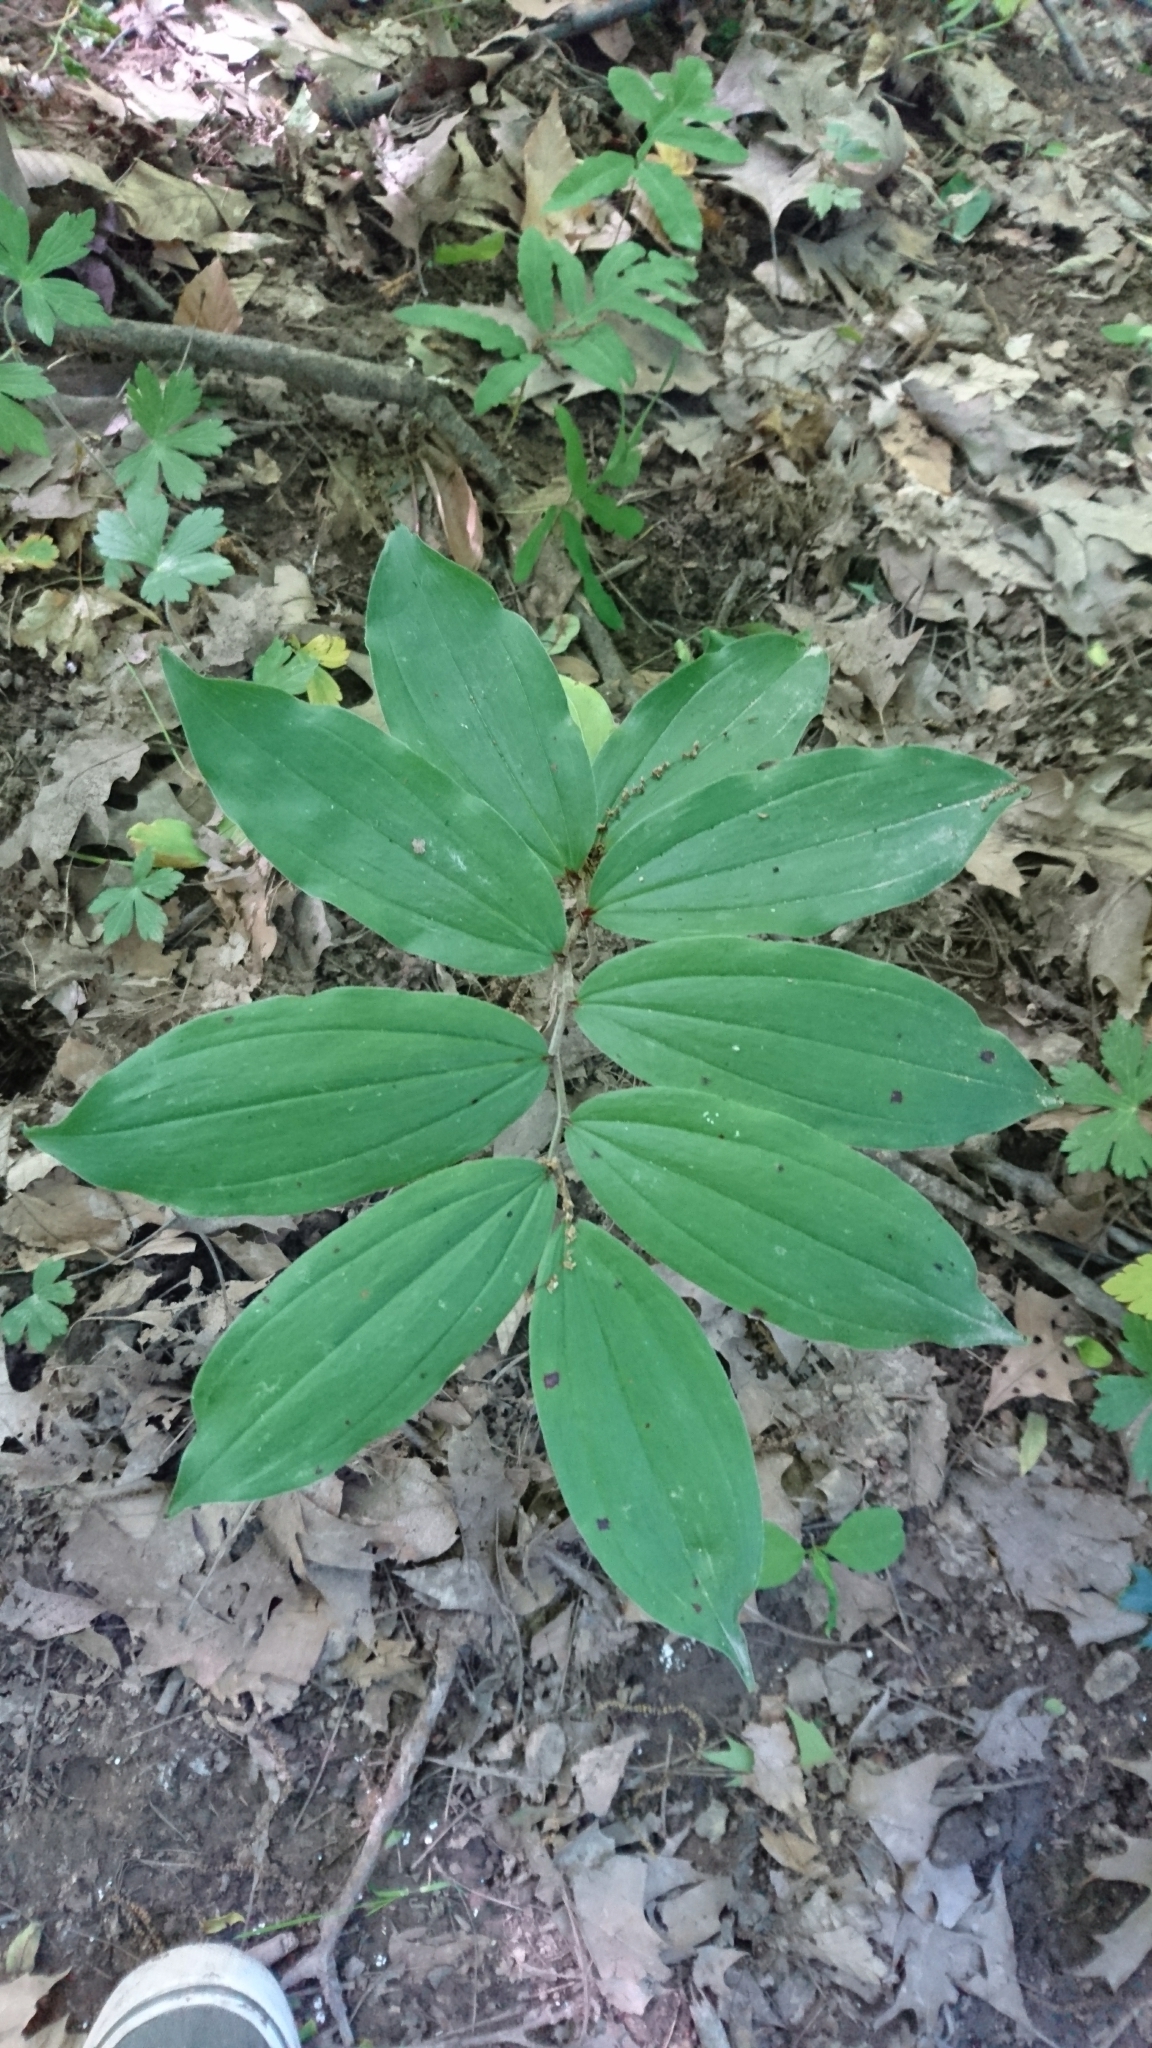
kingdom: Plantae
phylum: Tracheophyta
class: Liliopsida
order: Asparagales
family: Asparagaceae
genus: Maianthemum
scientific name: Maianthemum racemosum
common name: False spikenard
